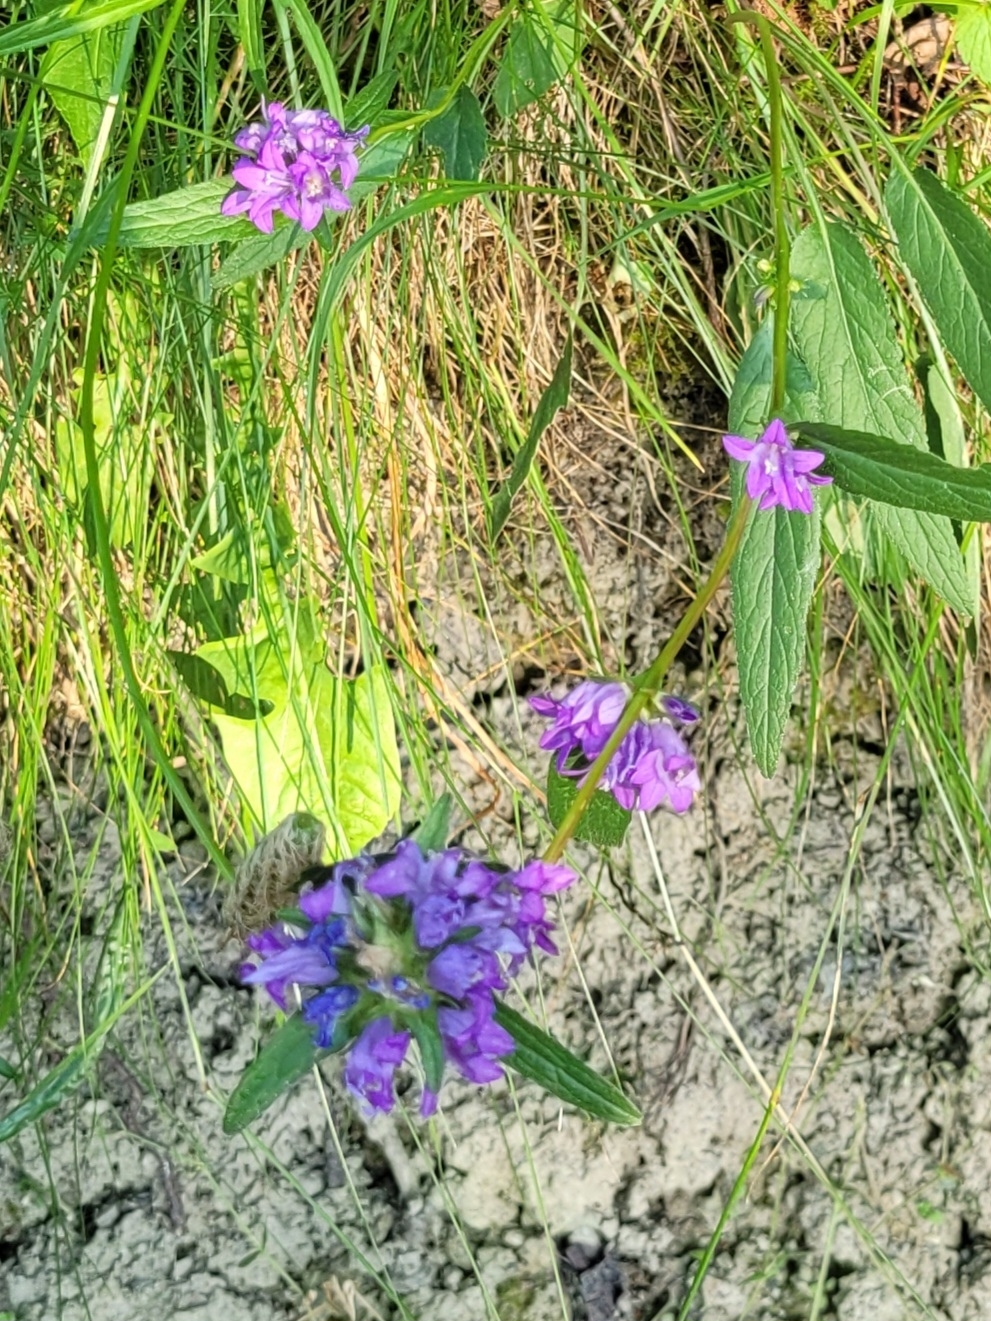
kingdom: Plantae
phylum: Tracheophyta
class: Magnoliopsida
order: Asterales
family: Campanulaceae
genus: Campanula
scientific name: Campanula glomerata
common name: Clustered bellflower
